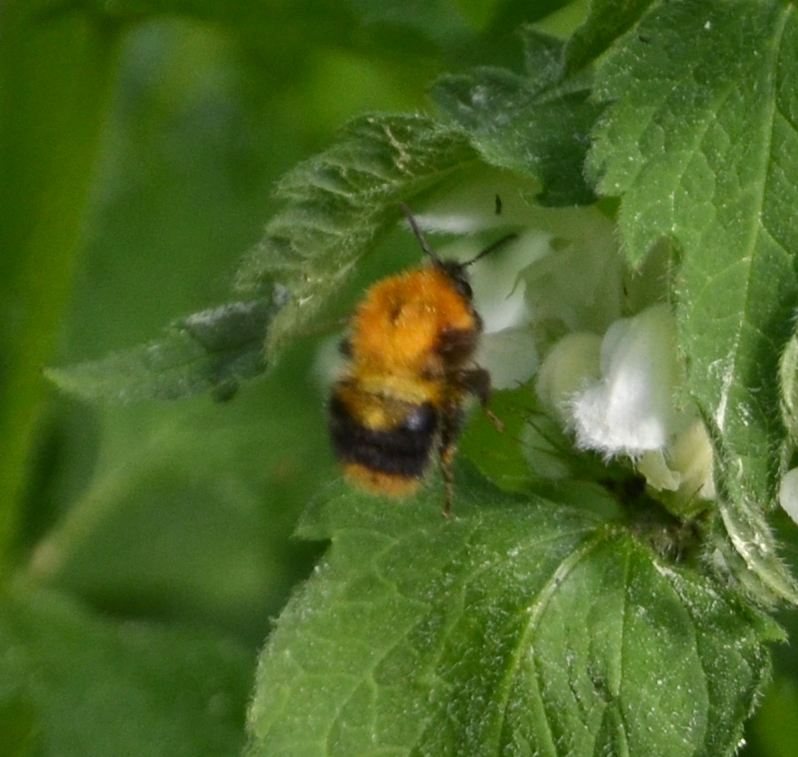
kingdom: Animalia
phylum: Arthropoda
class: Insecta
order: Hymenoptera
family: Apidae
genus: Bombus
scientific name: Bombus pascuorum
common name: Common carder bee
